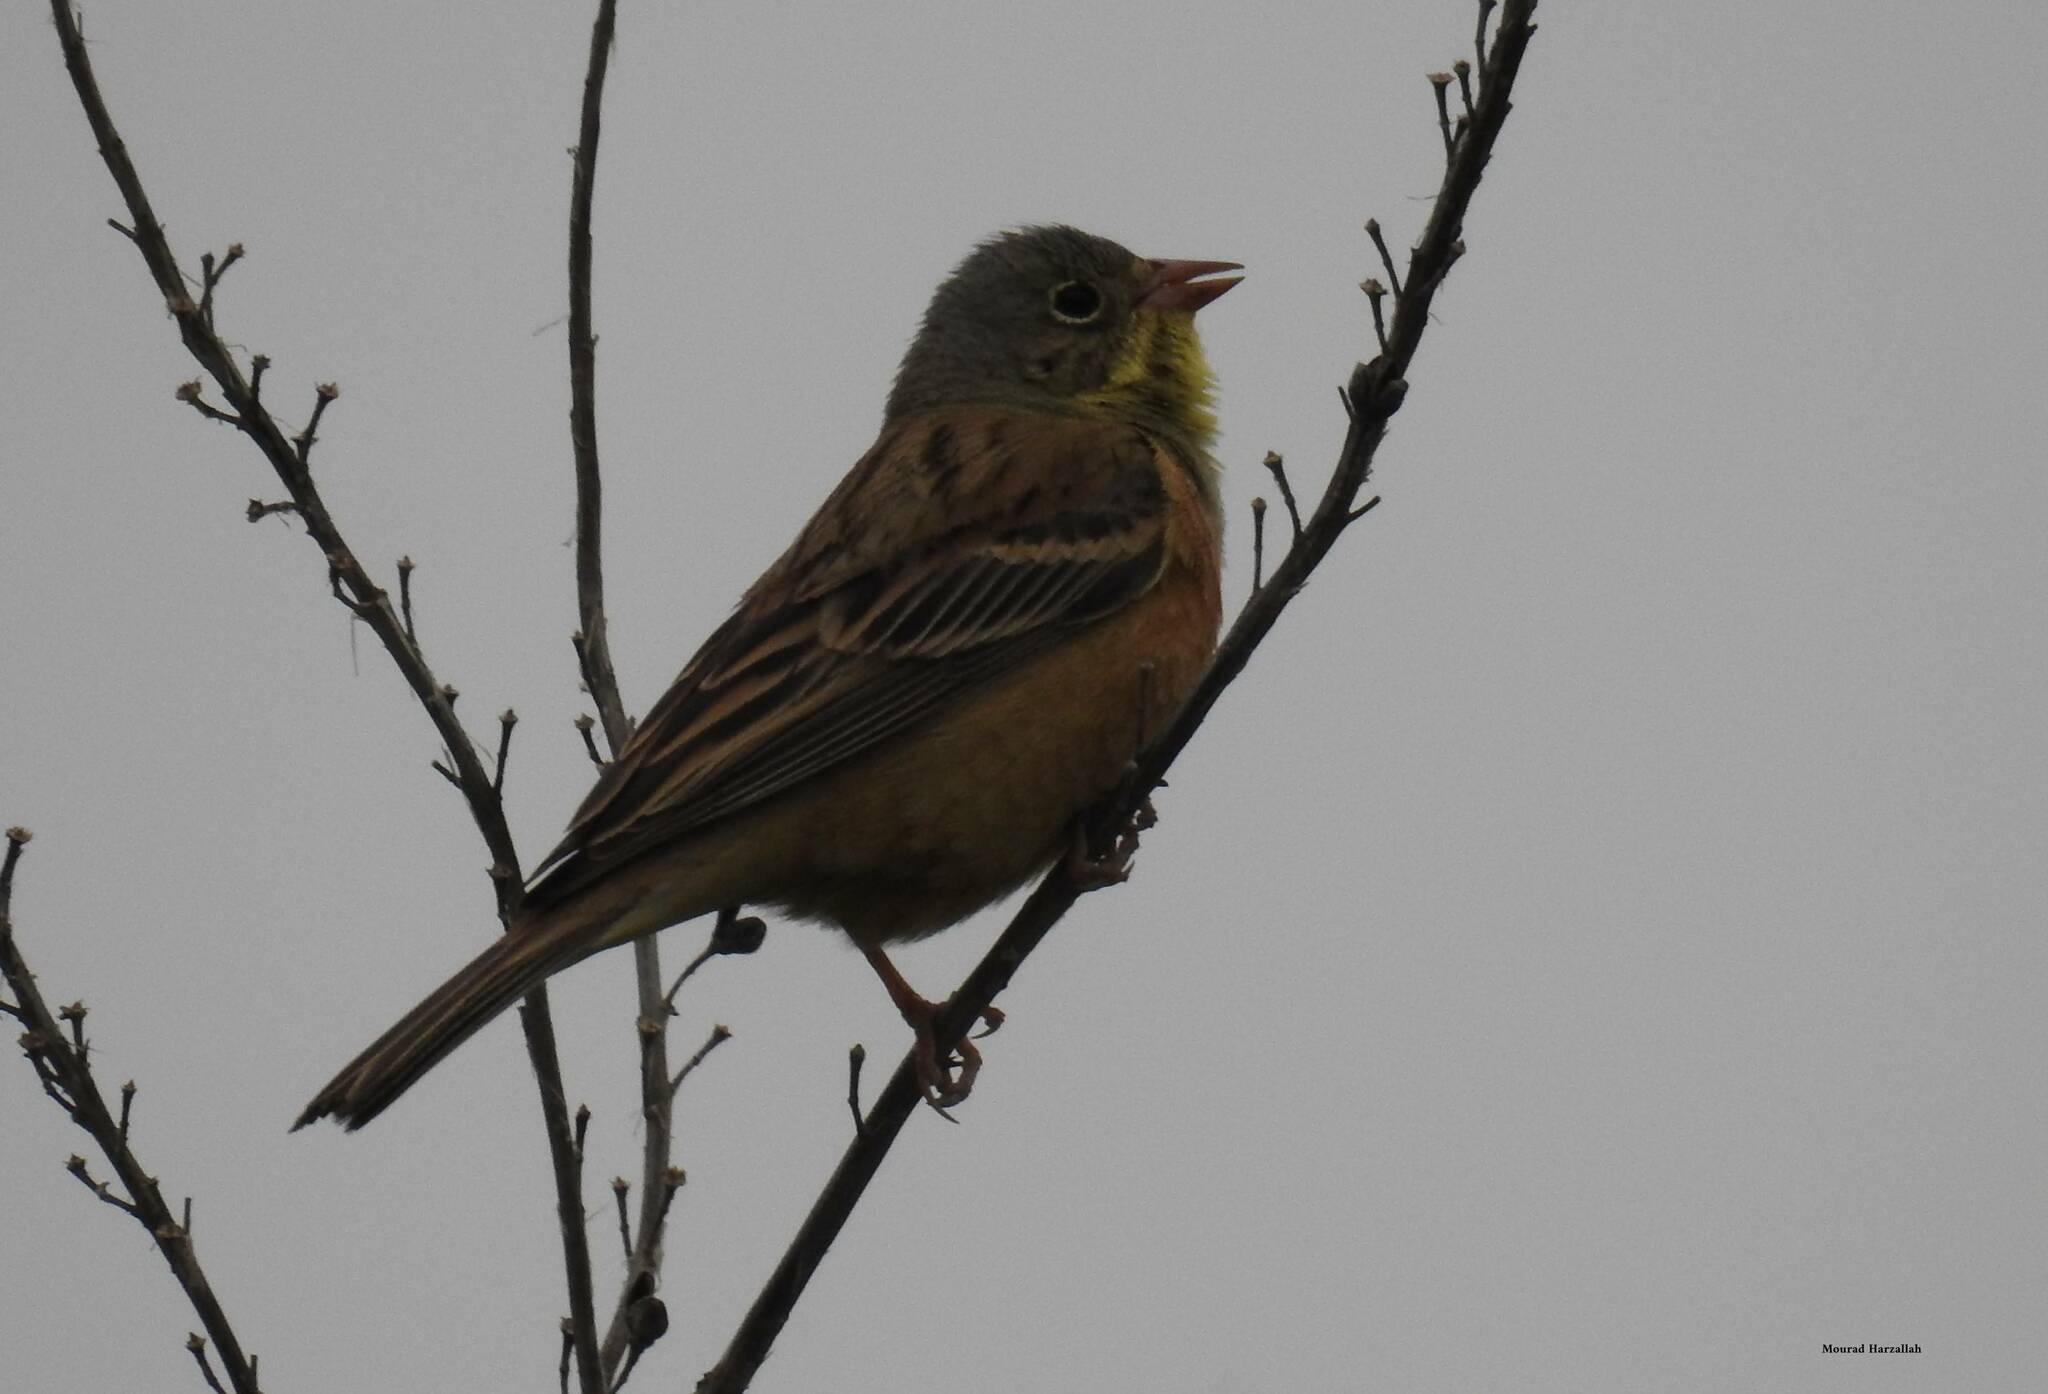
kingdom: Animalia
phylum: Chordata
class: Aves
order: Passeriformes
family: Emberizidae
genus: Emberiza
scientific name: Emberiza hortulana
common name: Ortolan bunting
